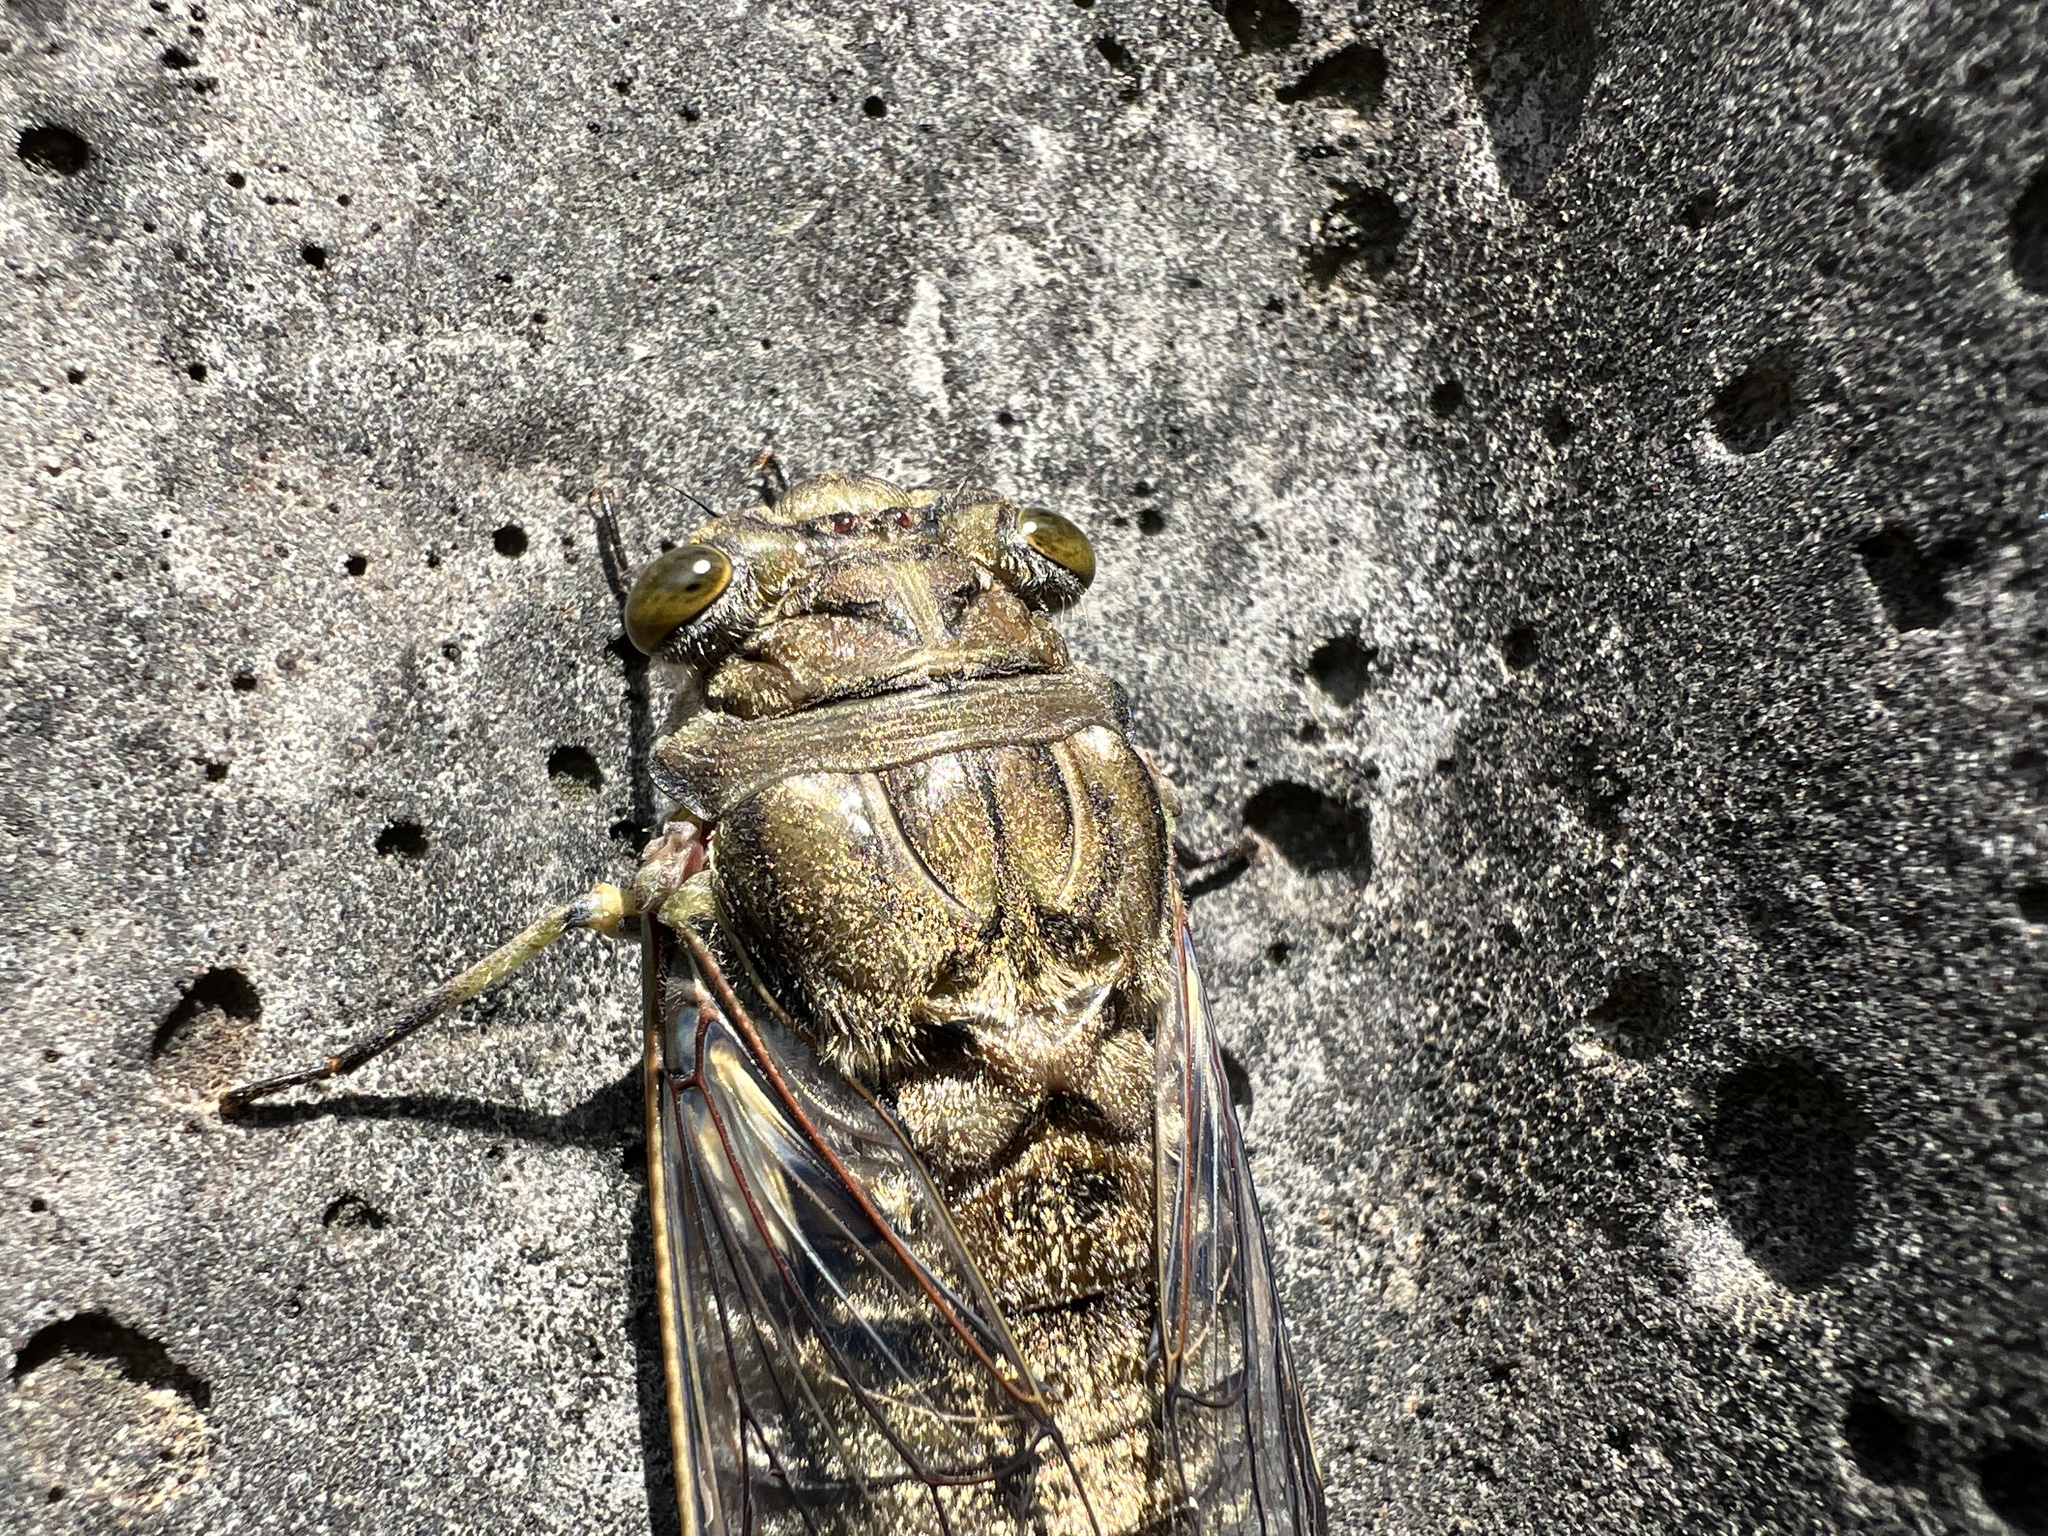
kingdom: Animalia
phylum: Arthropoda
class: Insecta
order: Hemiptera
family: Cicadidae
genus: Quesada
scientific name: Quesada gigas
